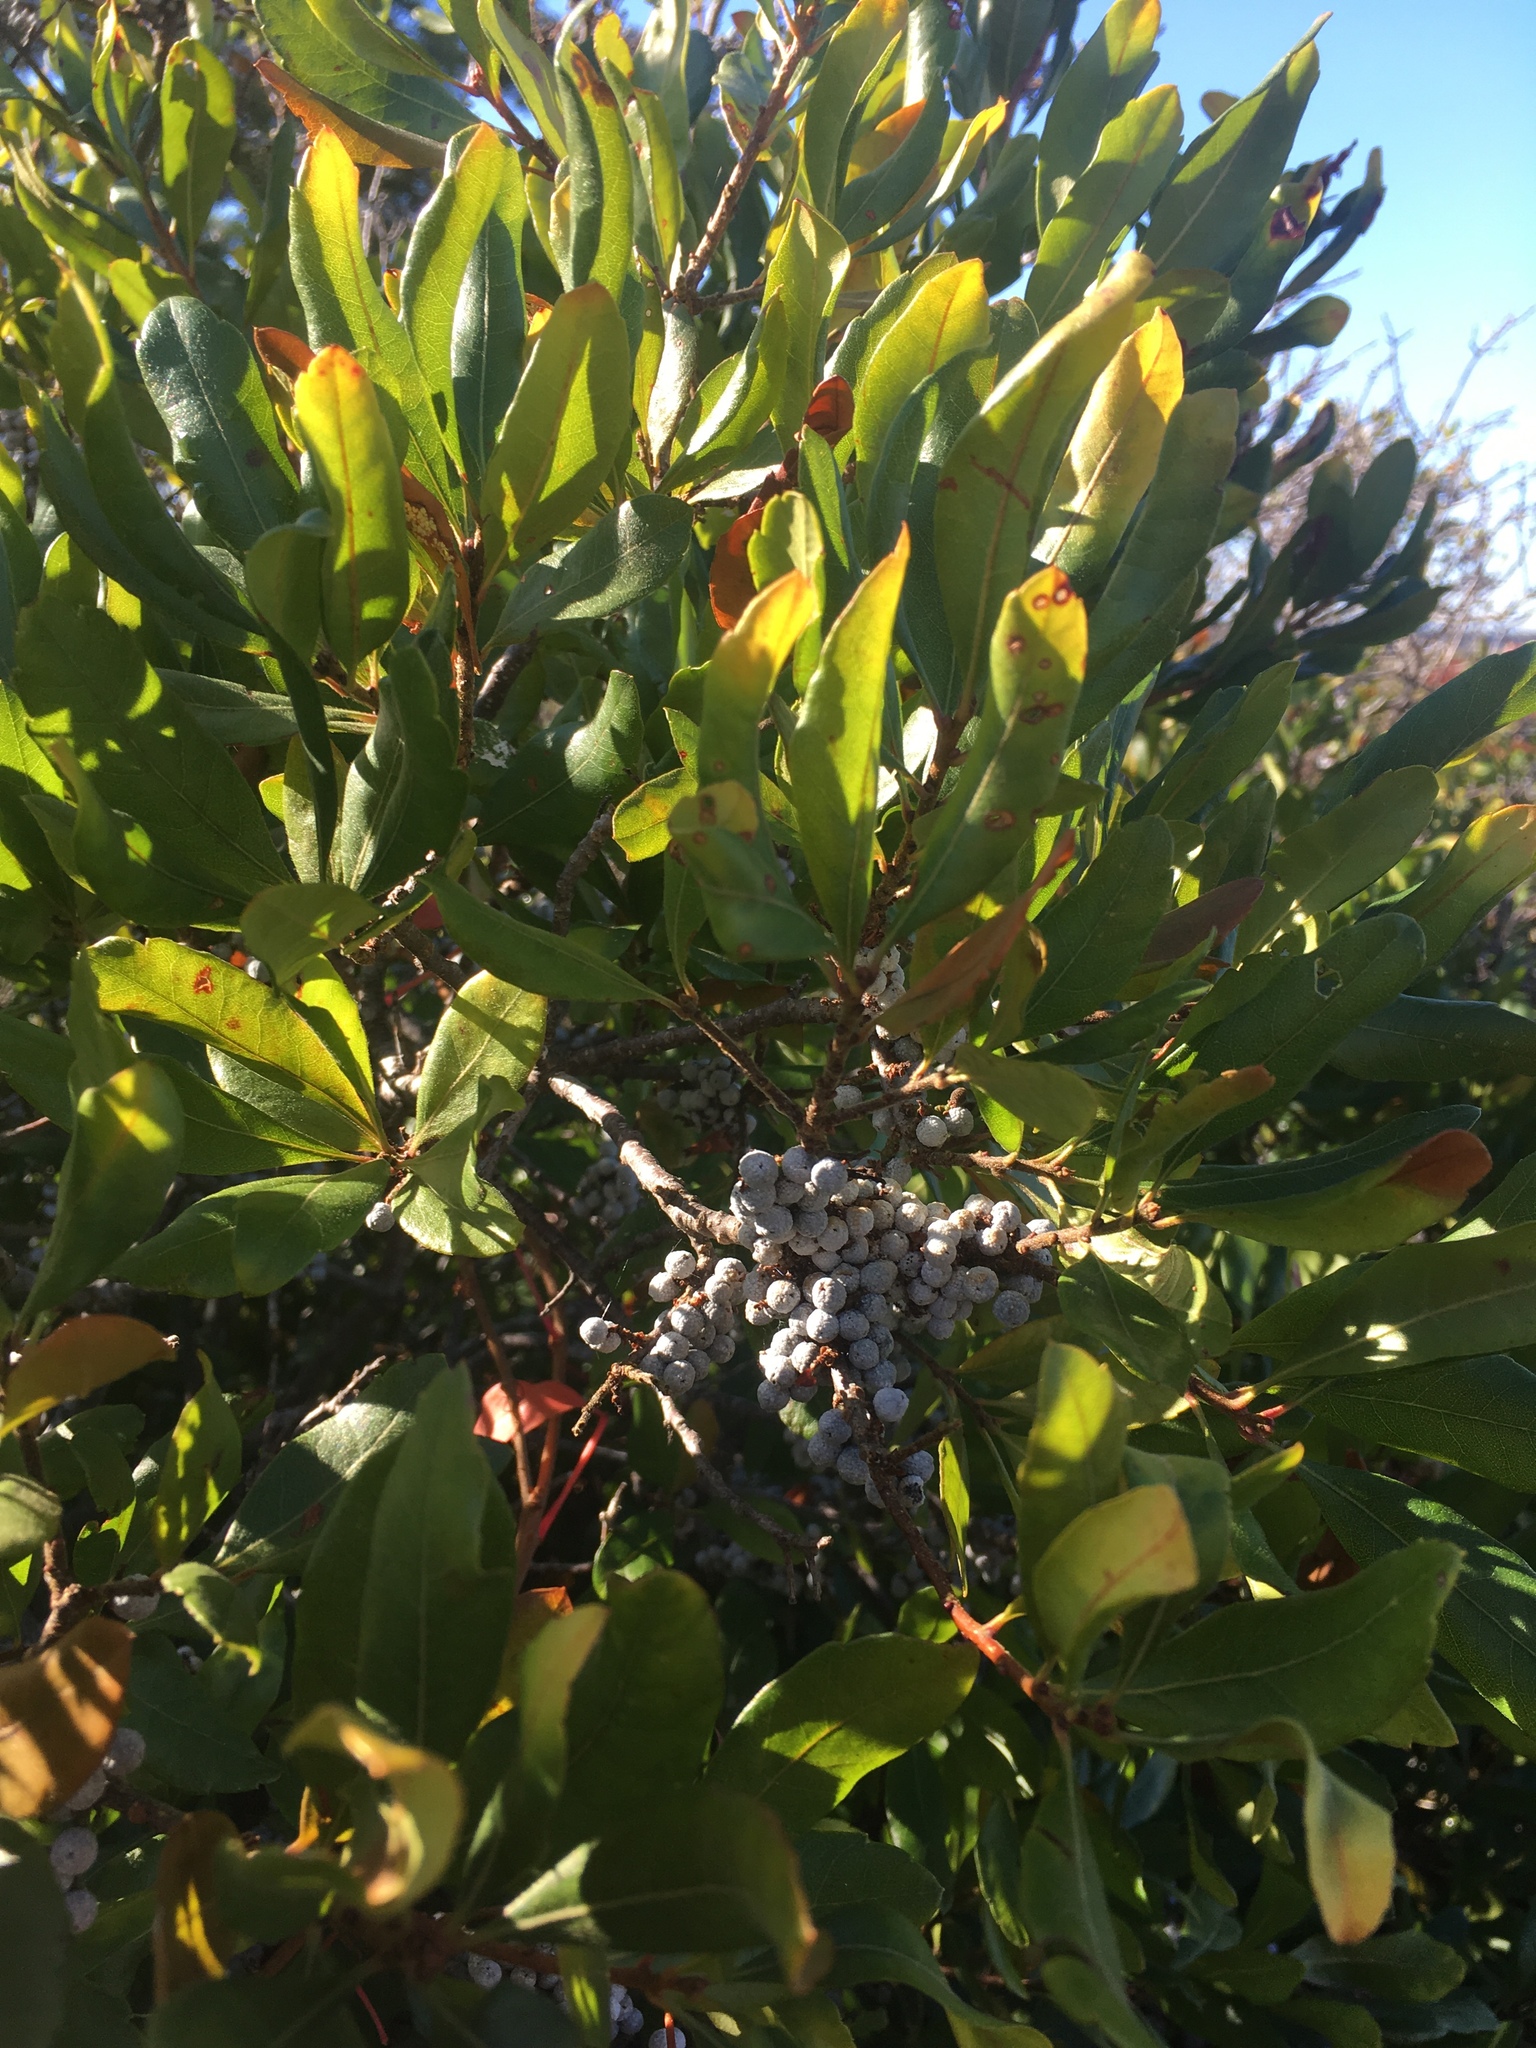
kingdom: Plantae
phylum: Tracheophyta
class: Magnoliopsida
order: Fagales
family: Myricaceae
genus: Morella
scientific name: Morella pensylvanica
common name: Northern bayberry
